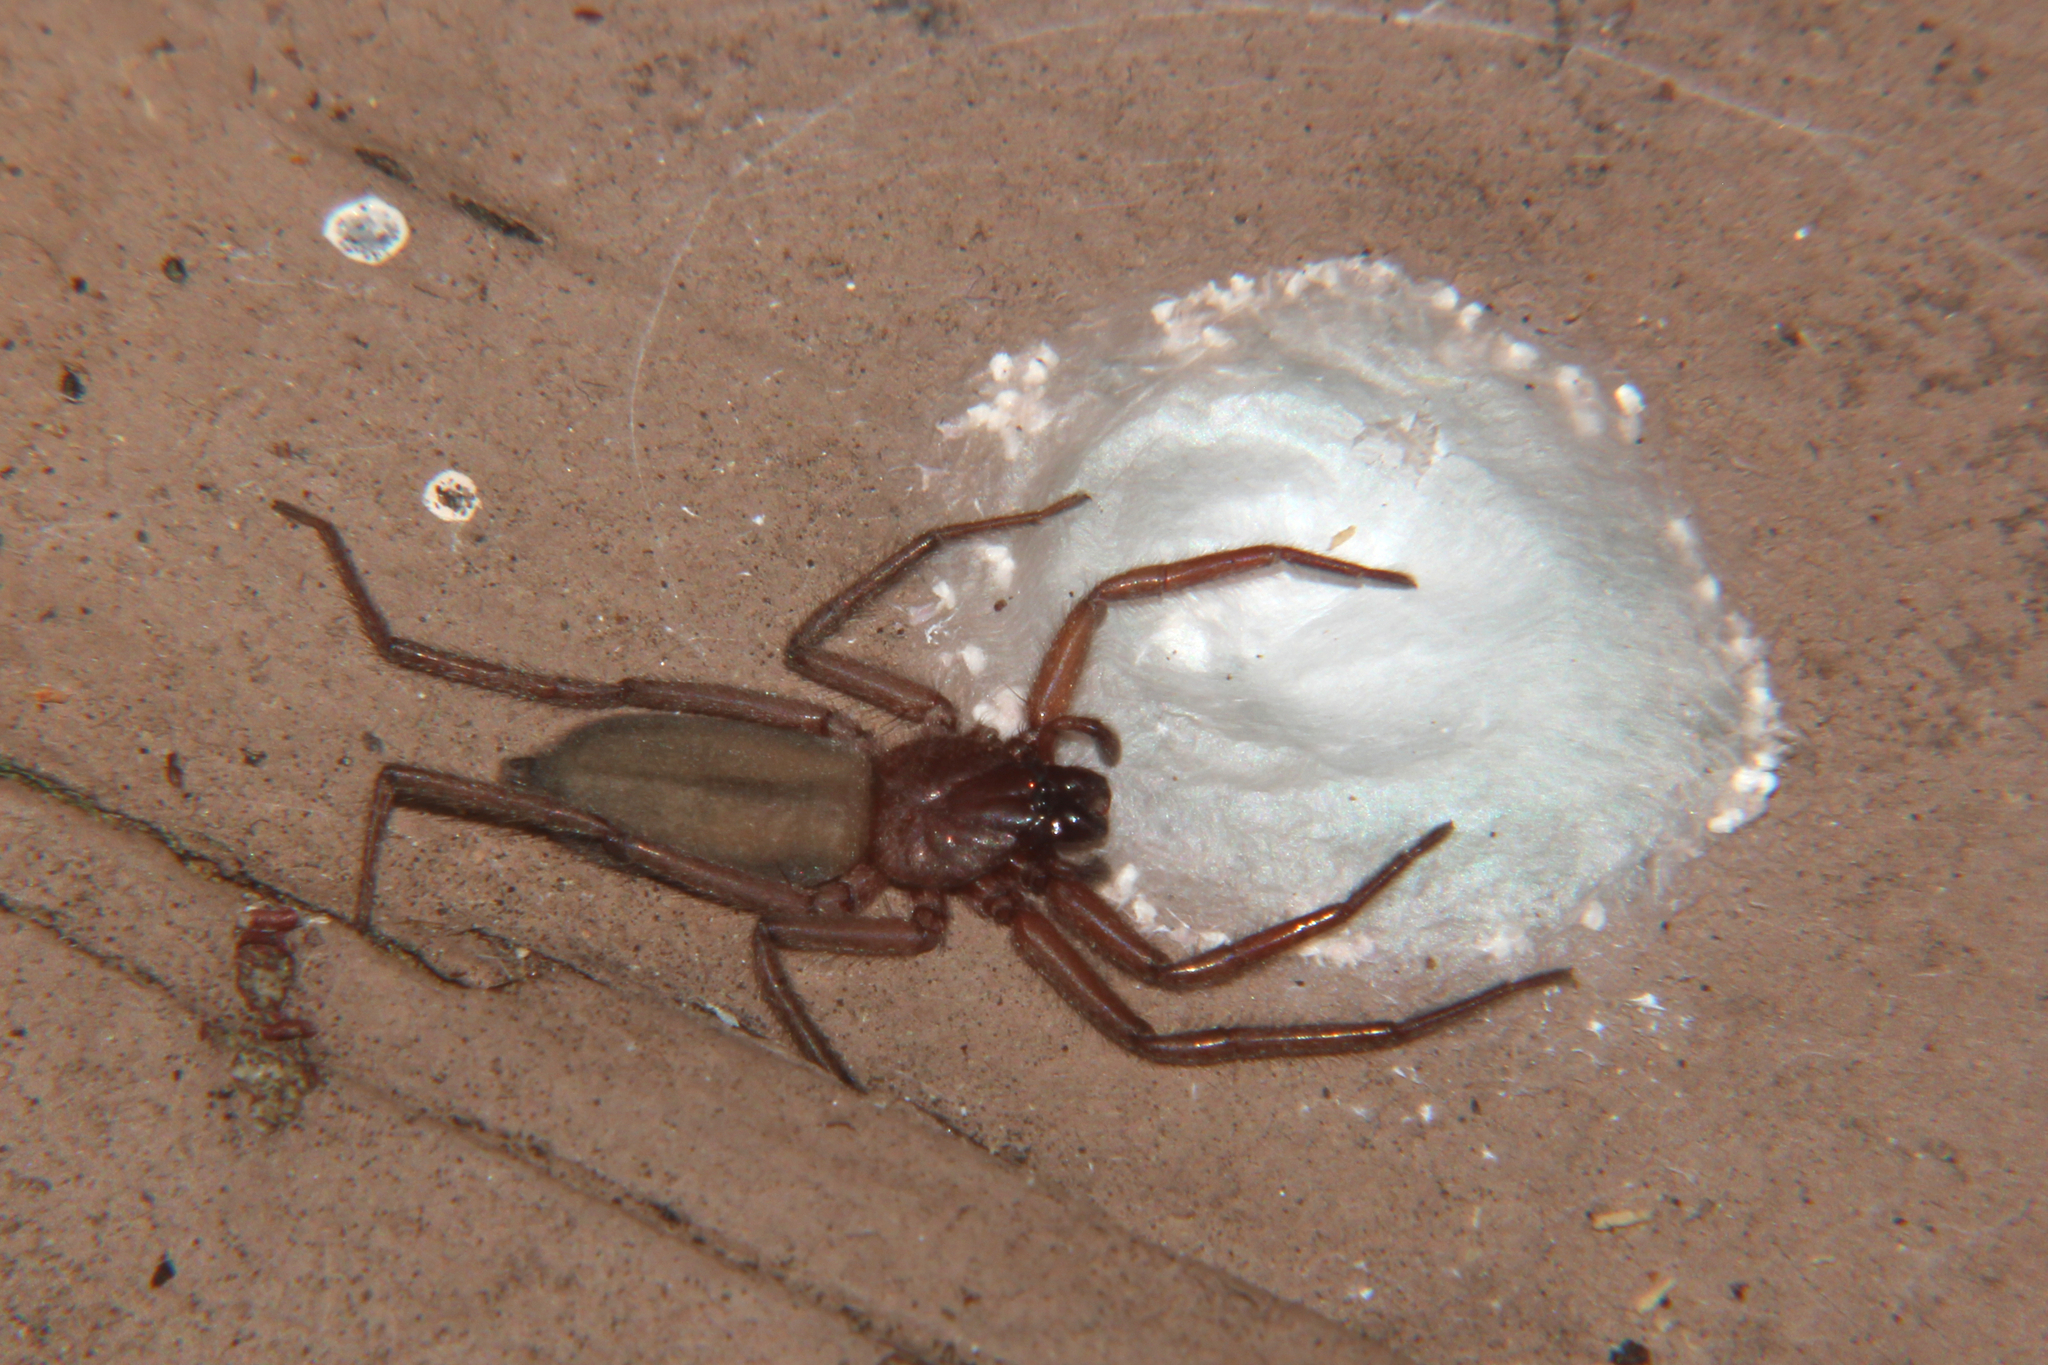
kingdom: Animalia
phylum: Arthropoda
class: Arachnida
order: Araneae
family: Trochanteriidae
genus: Hemicloea
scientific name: Hemicloea rogenhoferi
